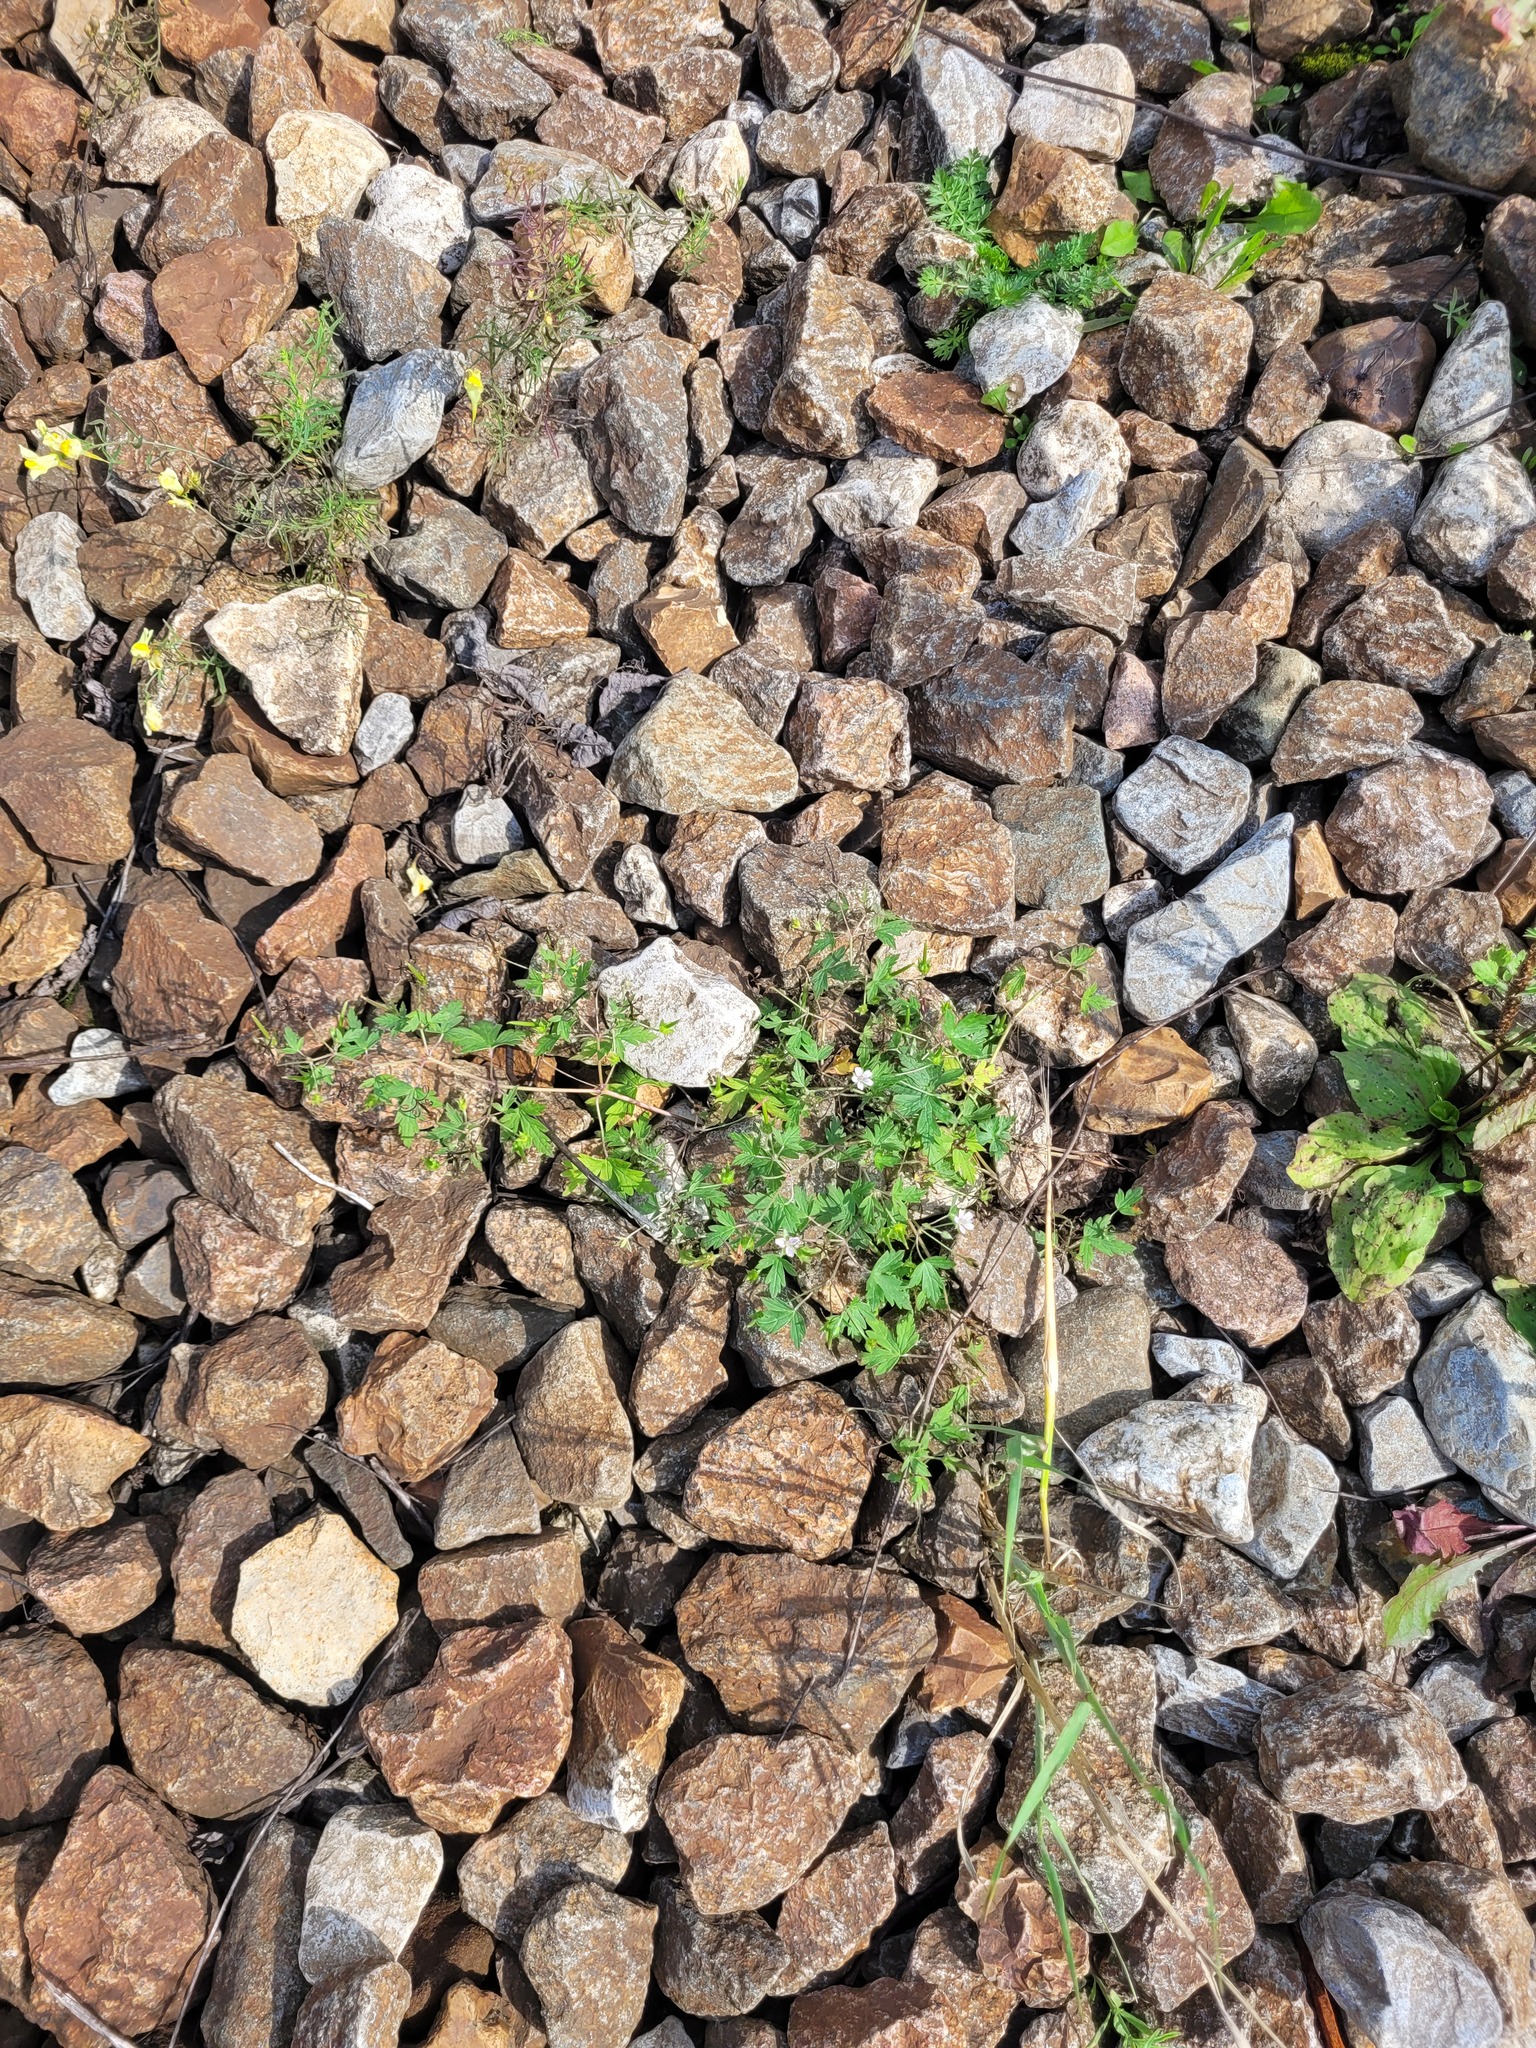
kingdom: Plantae
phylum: Tracheophyta
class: Magnoliopsida
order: Geraniales
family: Geraniaceae
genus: Geranium
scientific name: Geranium sibiricum
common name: Siberian crane's-bill
